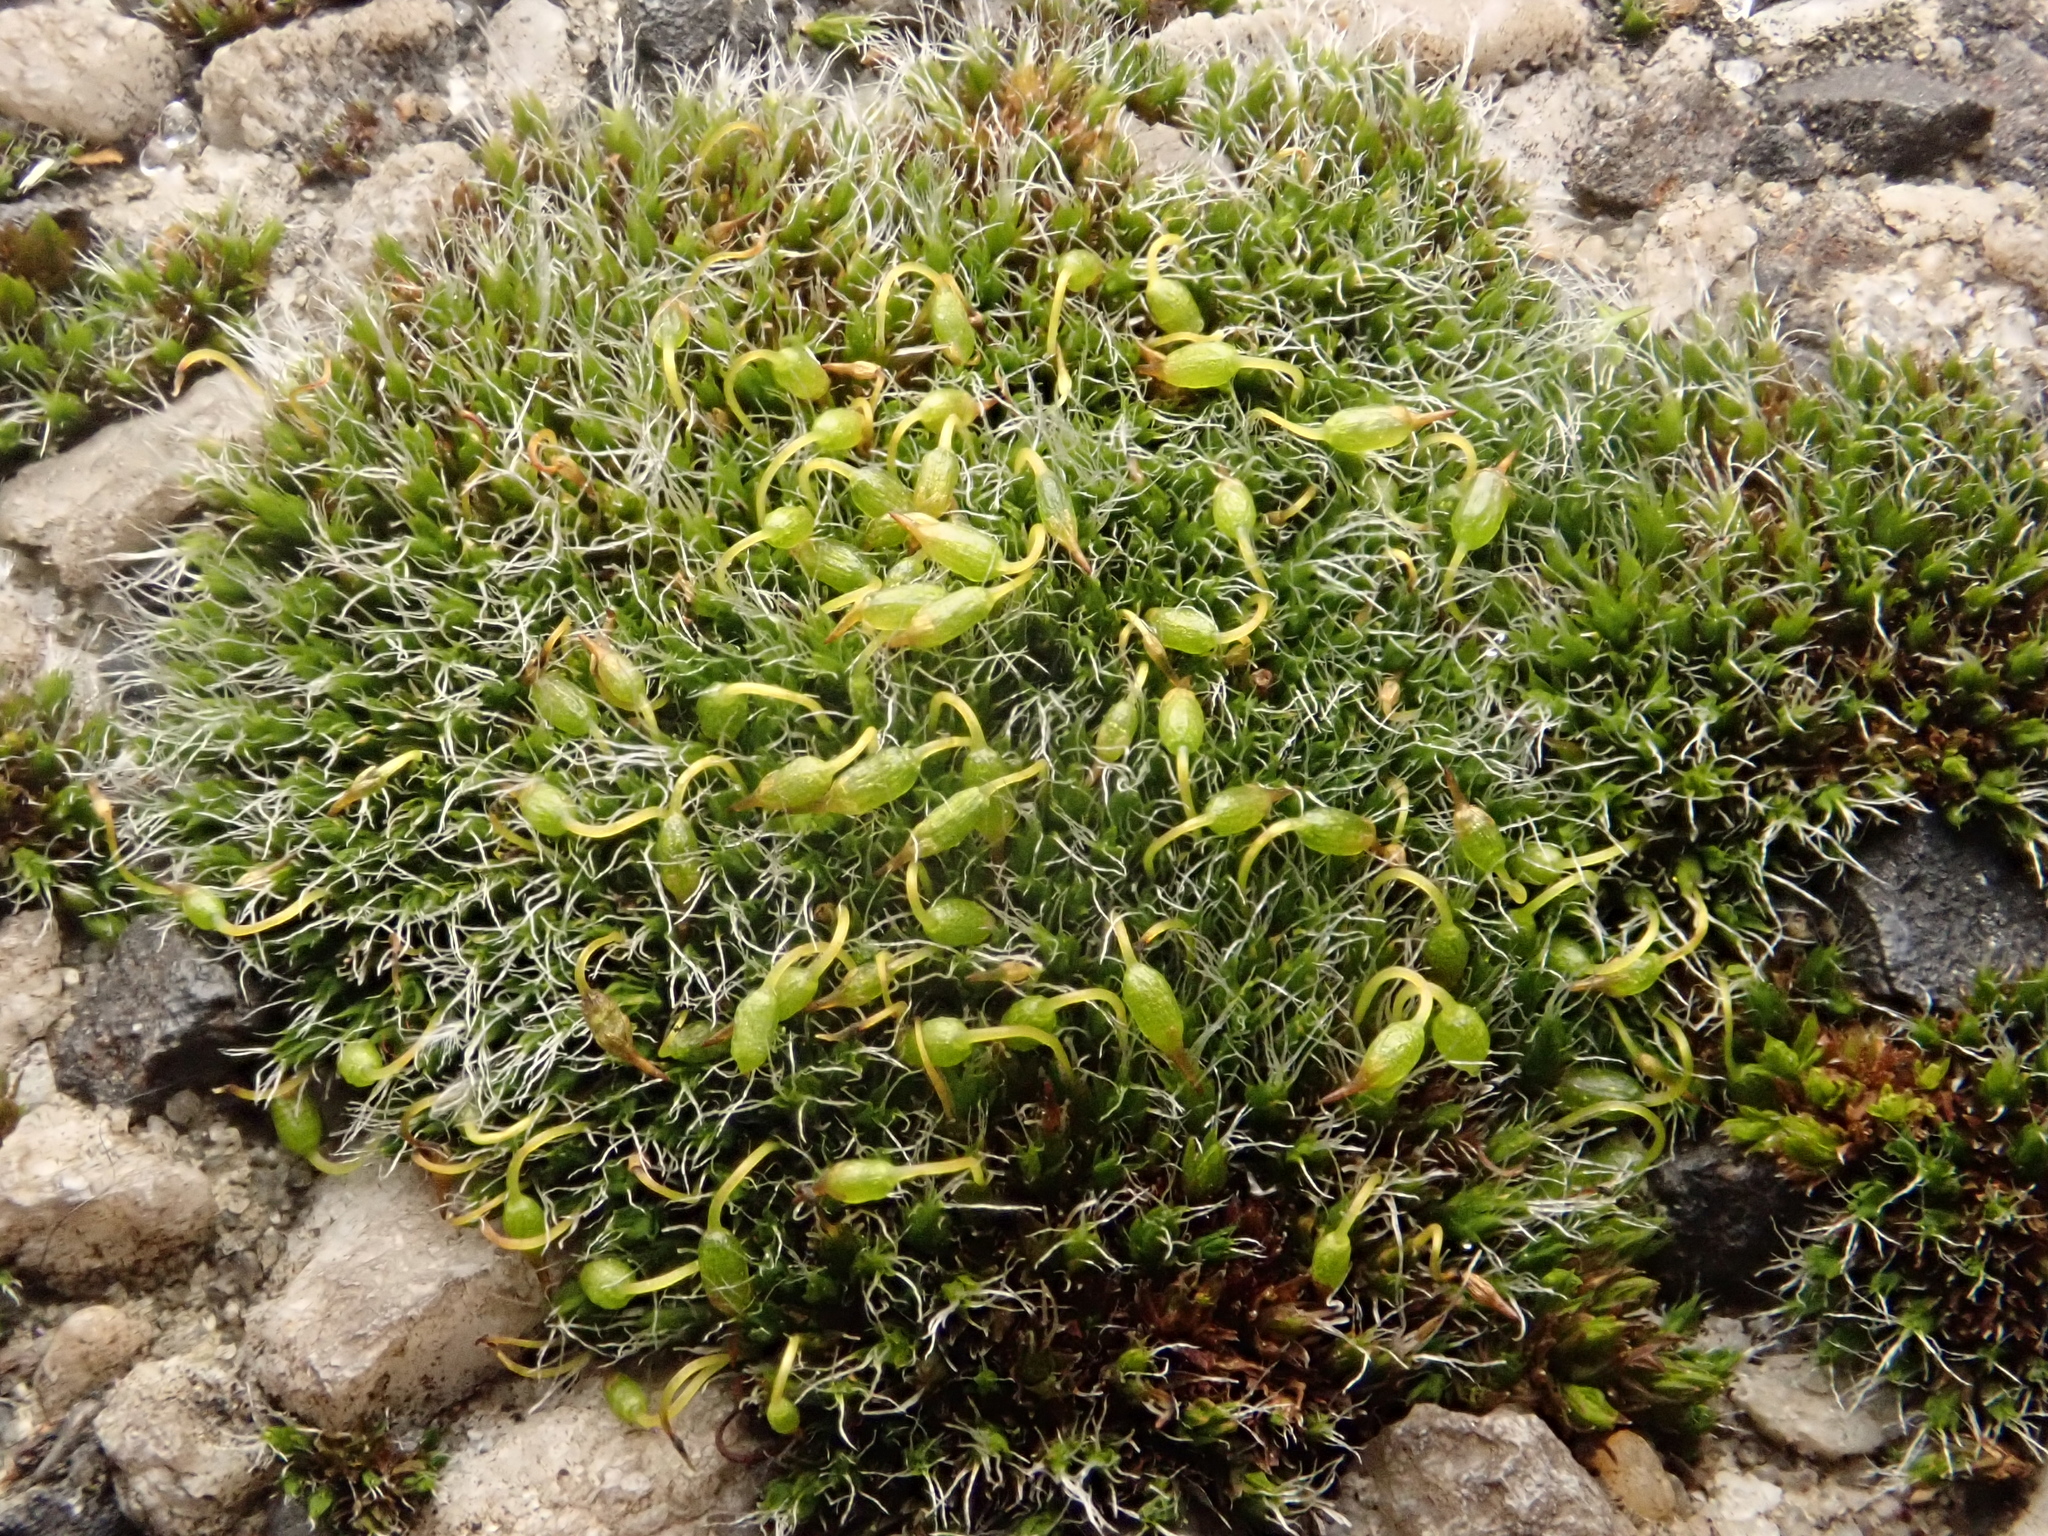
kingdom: Plantae
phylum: Bryophyta
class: Bryopsida
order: Grimmiales
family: Grimmiaceae
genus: Grimmia
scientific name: Grimmia pulvinata
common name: Grey-cushioned grimmia
